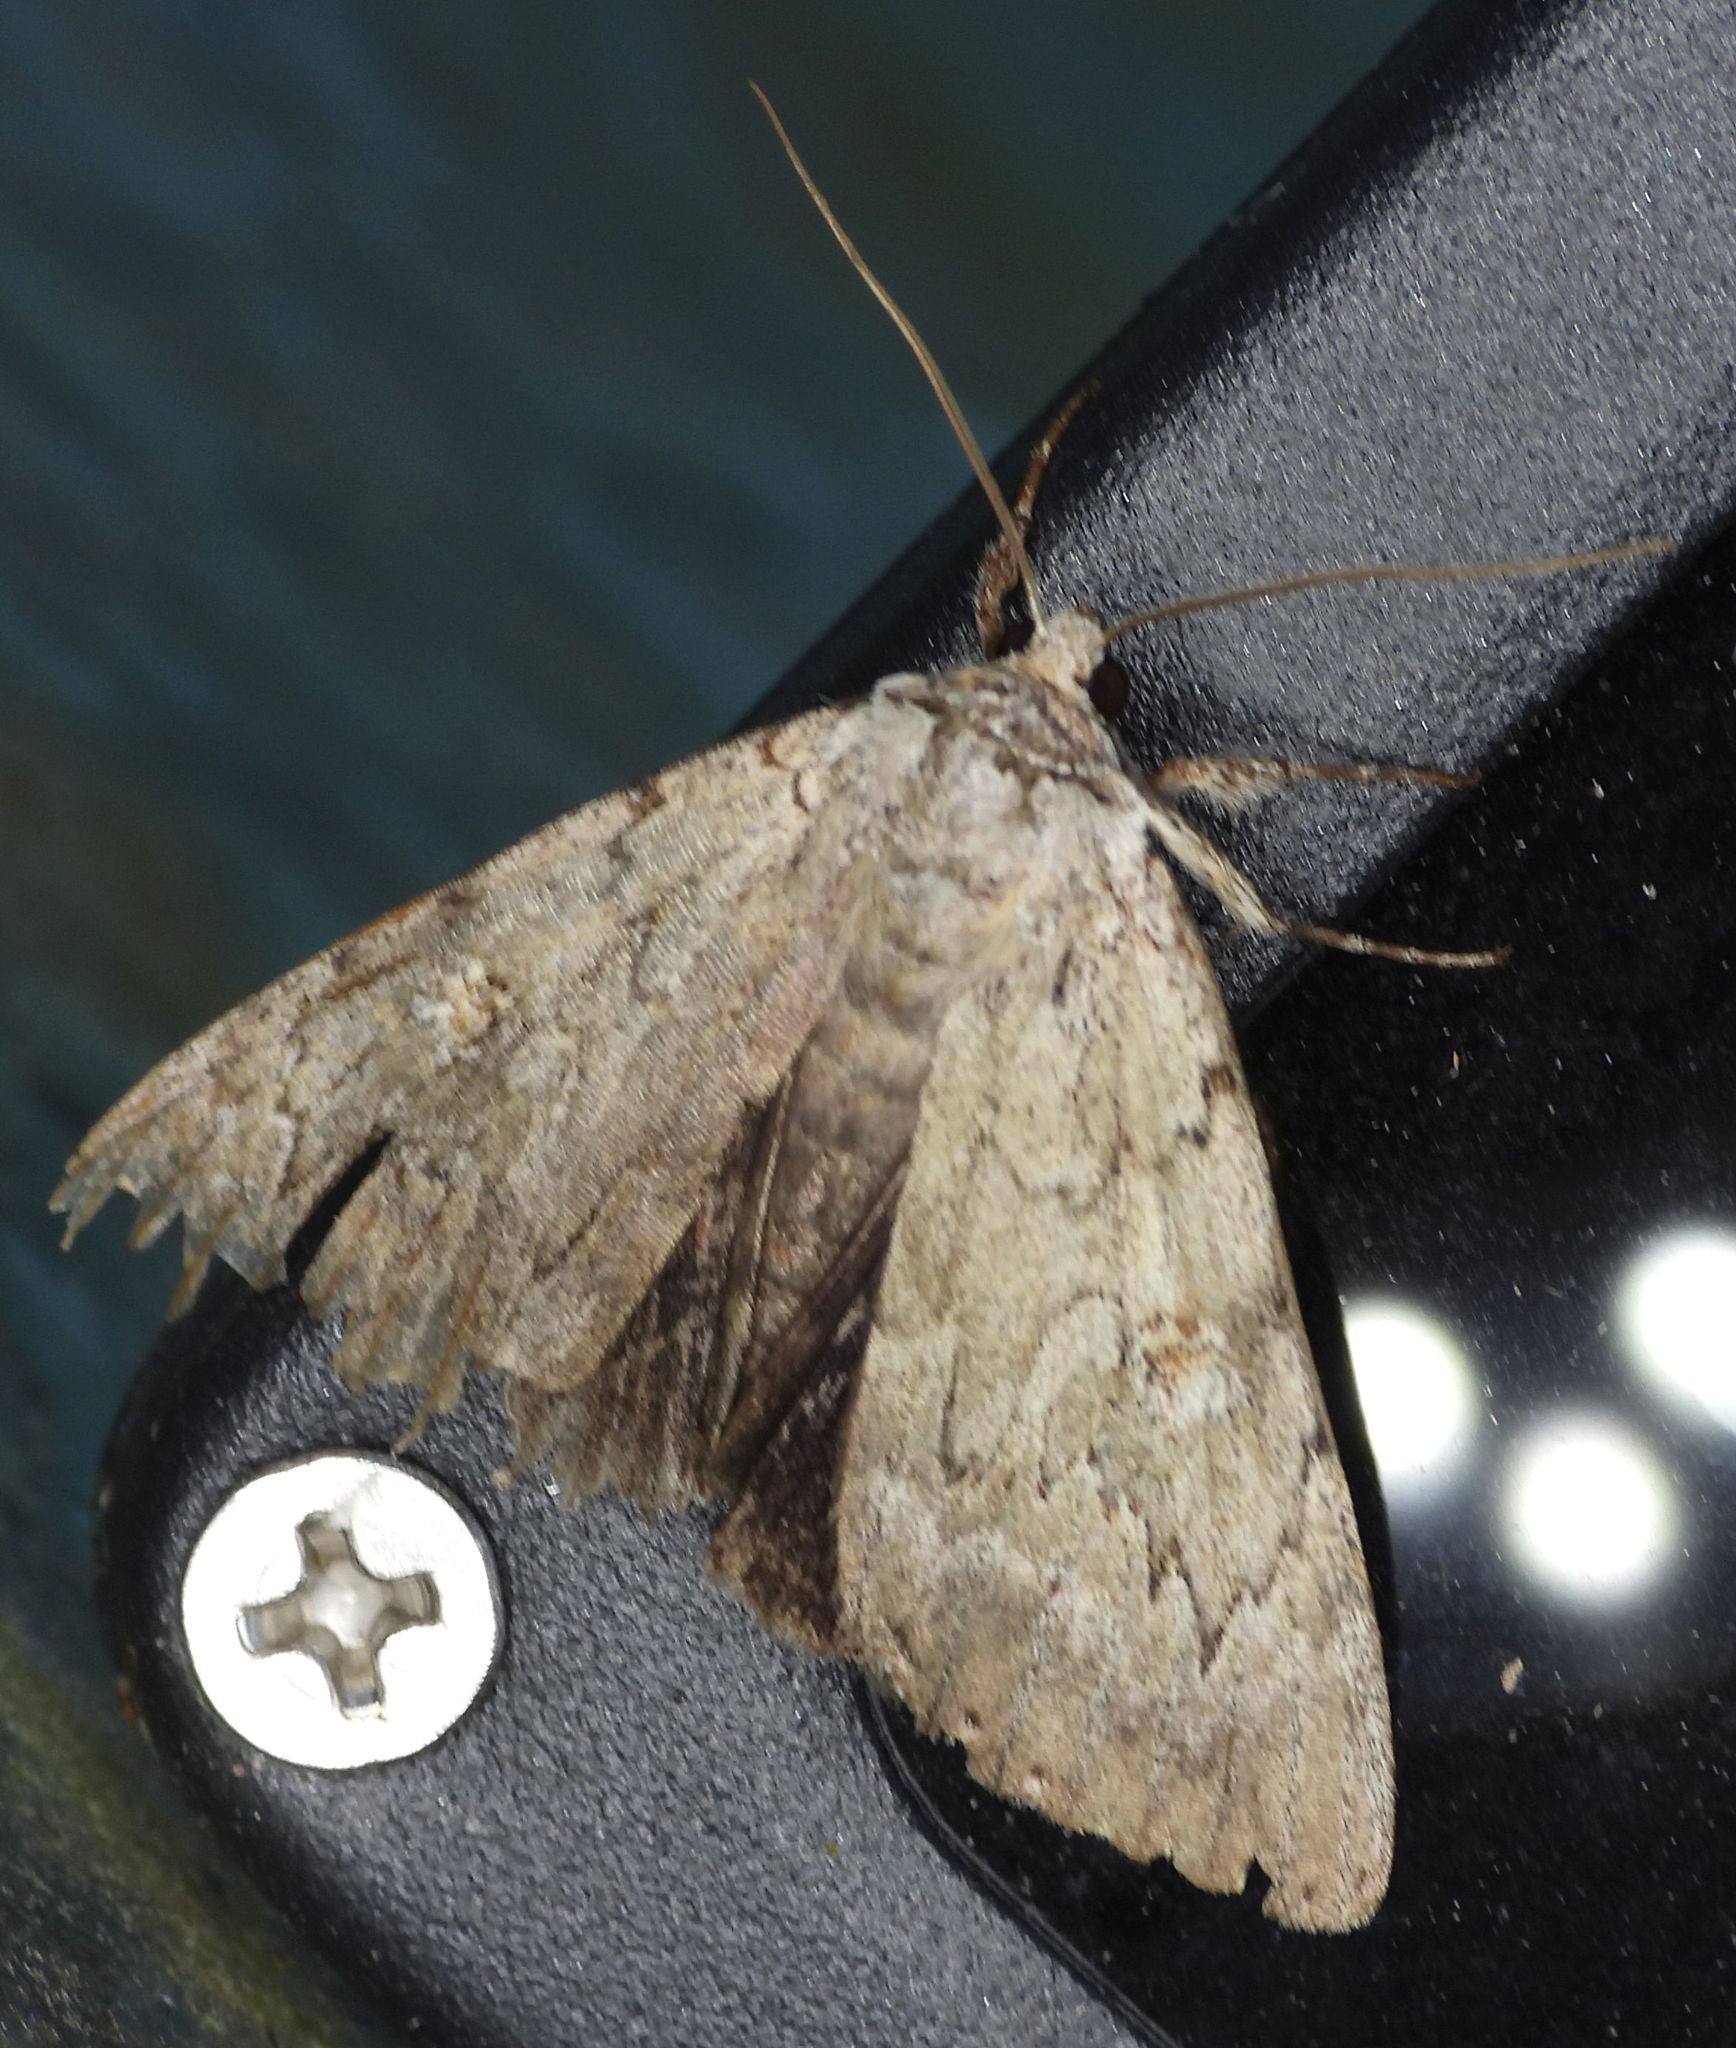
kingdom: Animalia
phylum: Arthropoda
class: Insecta
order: Lepidoptera
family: Erebidae
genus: Catocala
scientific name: Catocala judith
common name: Judith's underwing
